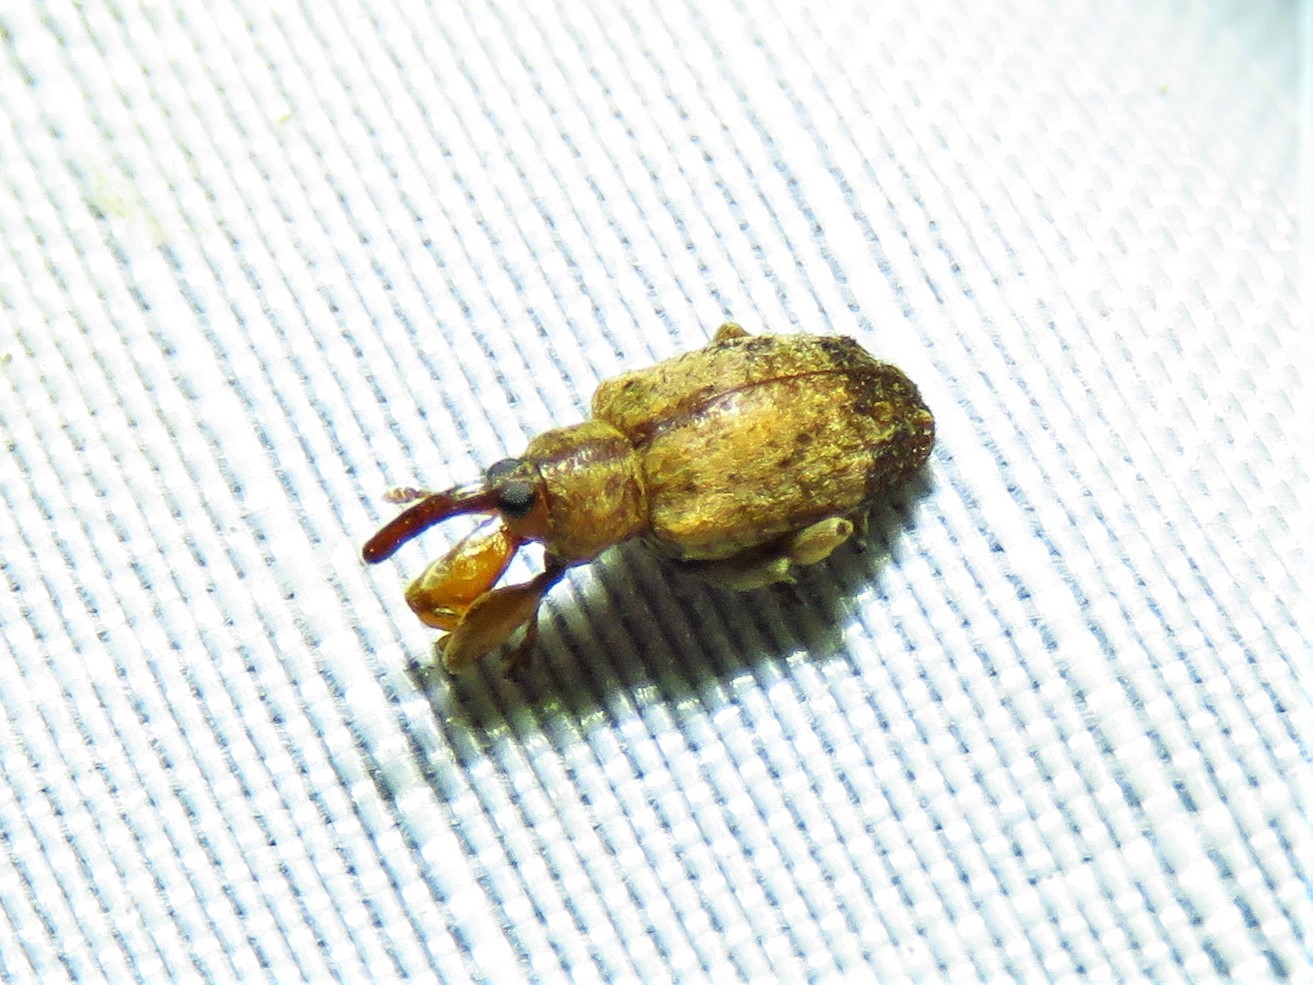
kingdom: Animalia
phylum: Arthropoda
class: Insecta
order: Coleoptera
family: Curculionidae
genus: Ochyromera
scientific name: Ochyromera ligustri
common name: Weevil
